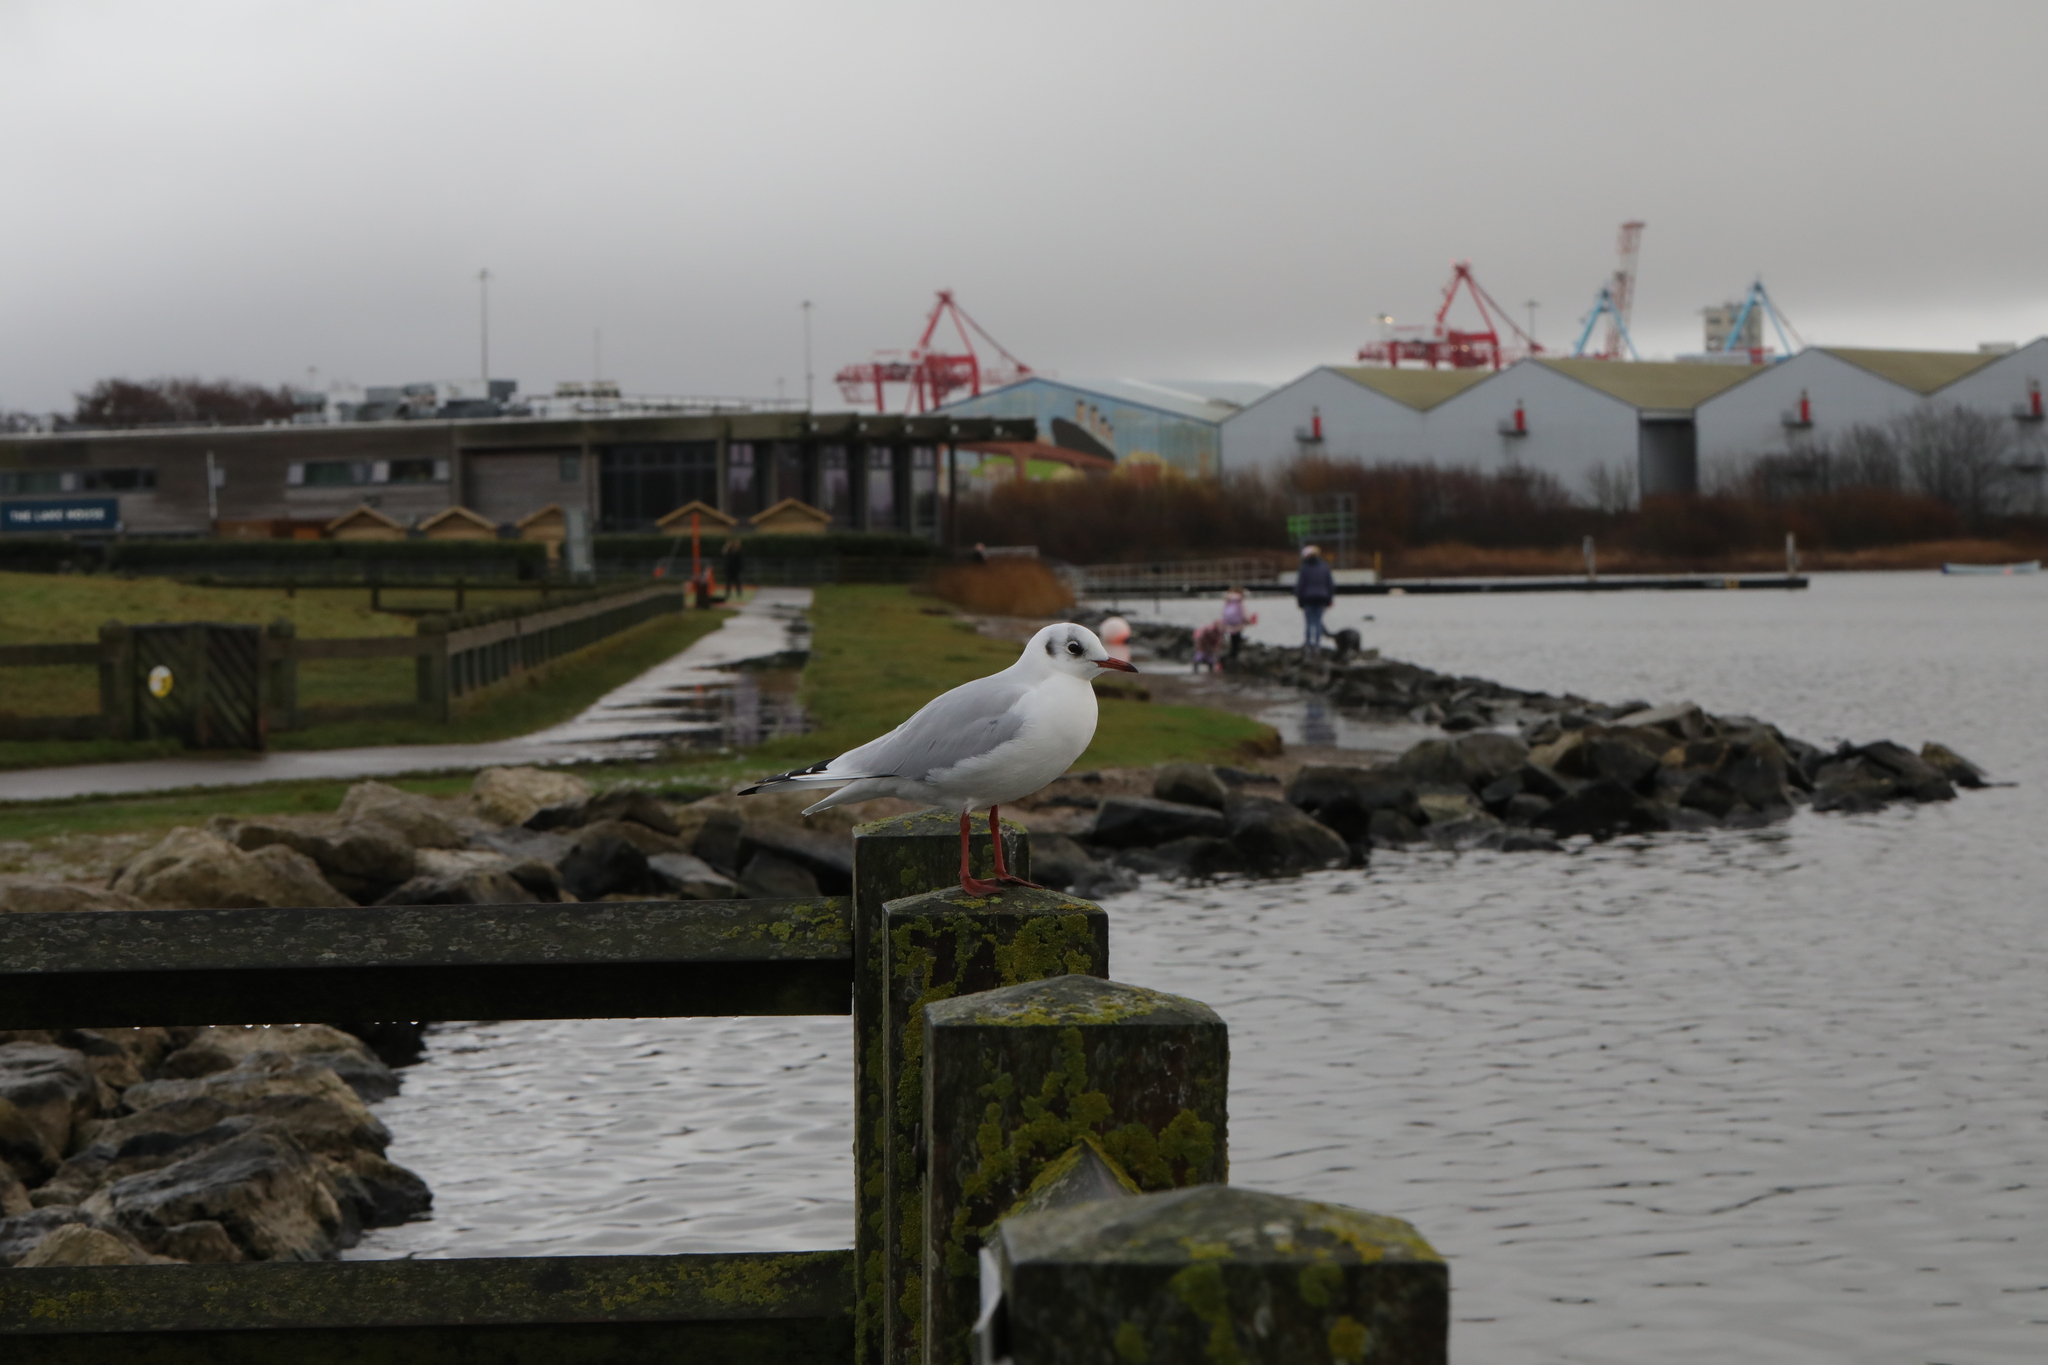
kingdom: Animalia
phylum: Chordata
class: Aves
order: Charadriiformes
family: Laridae
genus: Chroicocephalus
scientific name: Chroicocephalus ridibundus
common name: Black-headed gull
